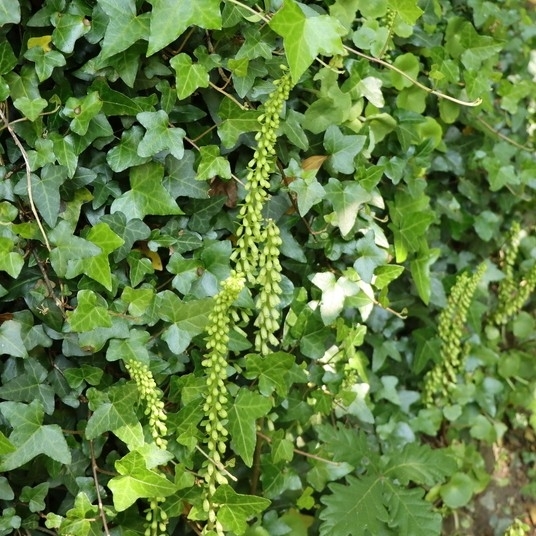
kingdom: Plantae
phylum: Tracheophyta
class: Magnoliopsida
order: Saxifragales
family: Crassulaceae
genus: Umbilicus
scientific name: Umbilicus rupestris
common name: Navelwort
